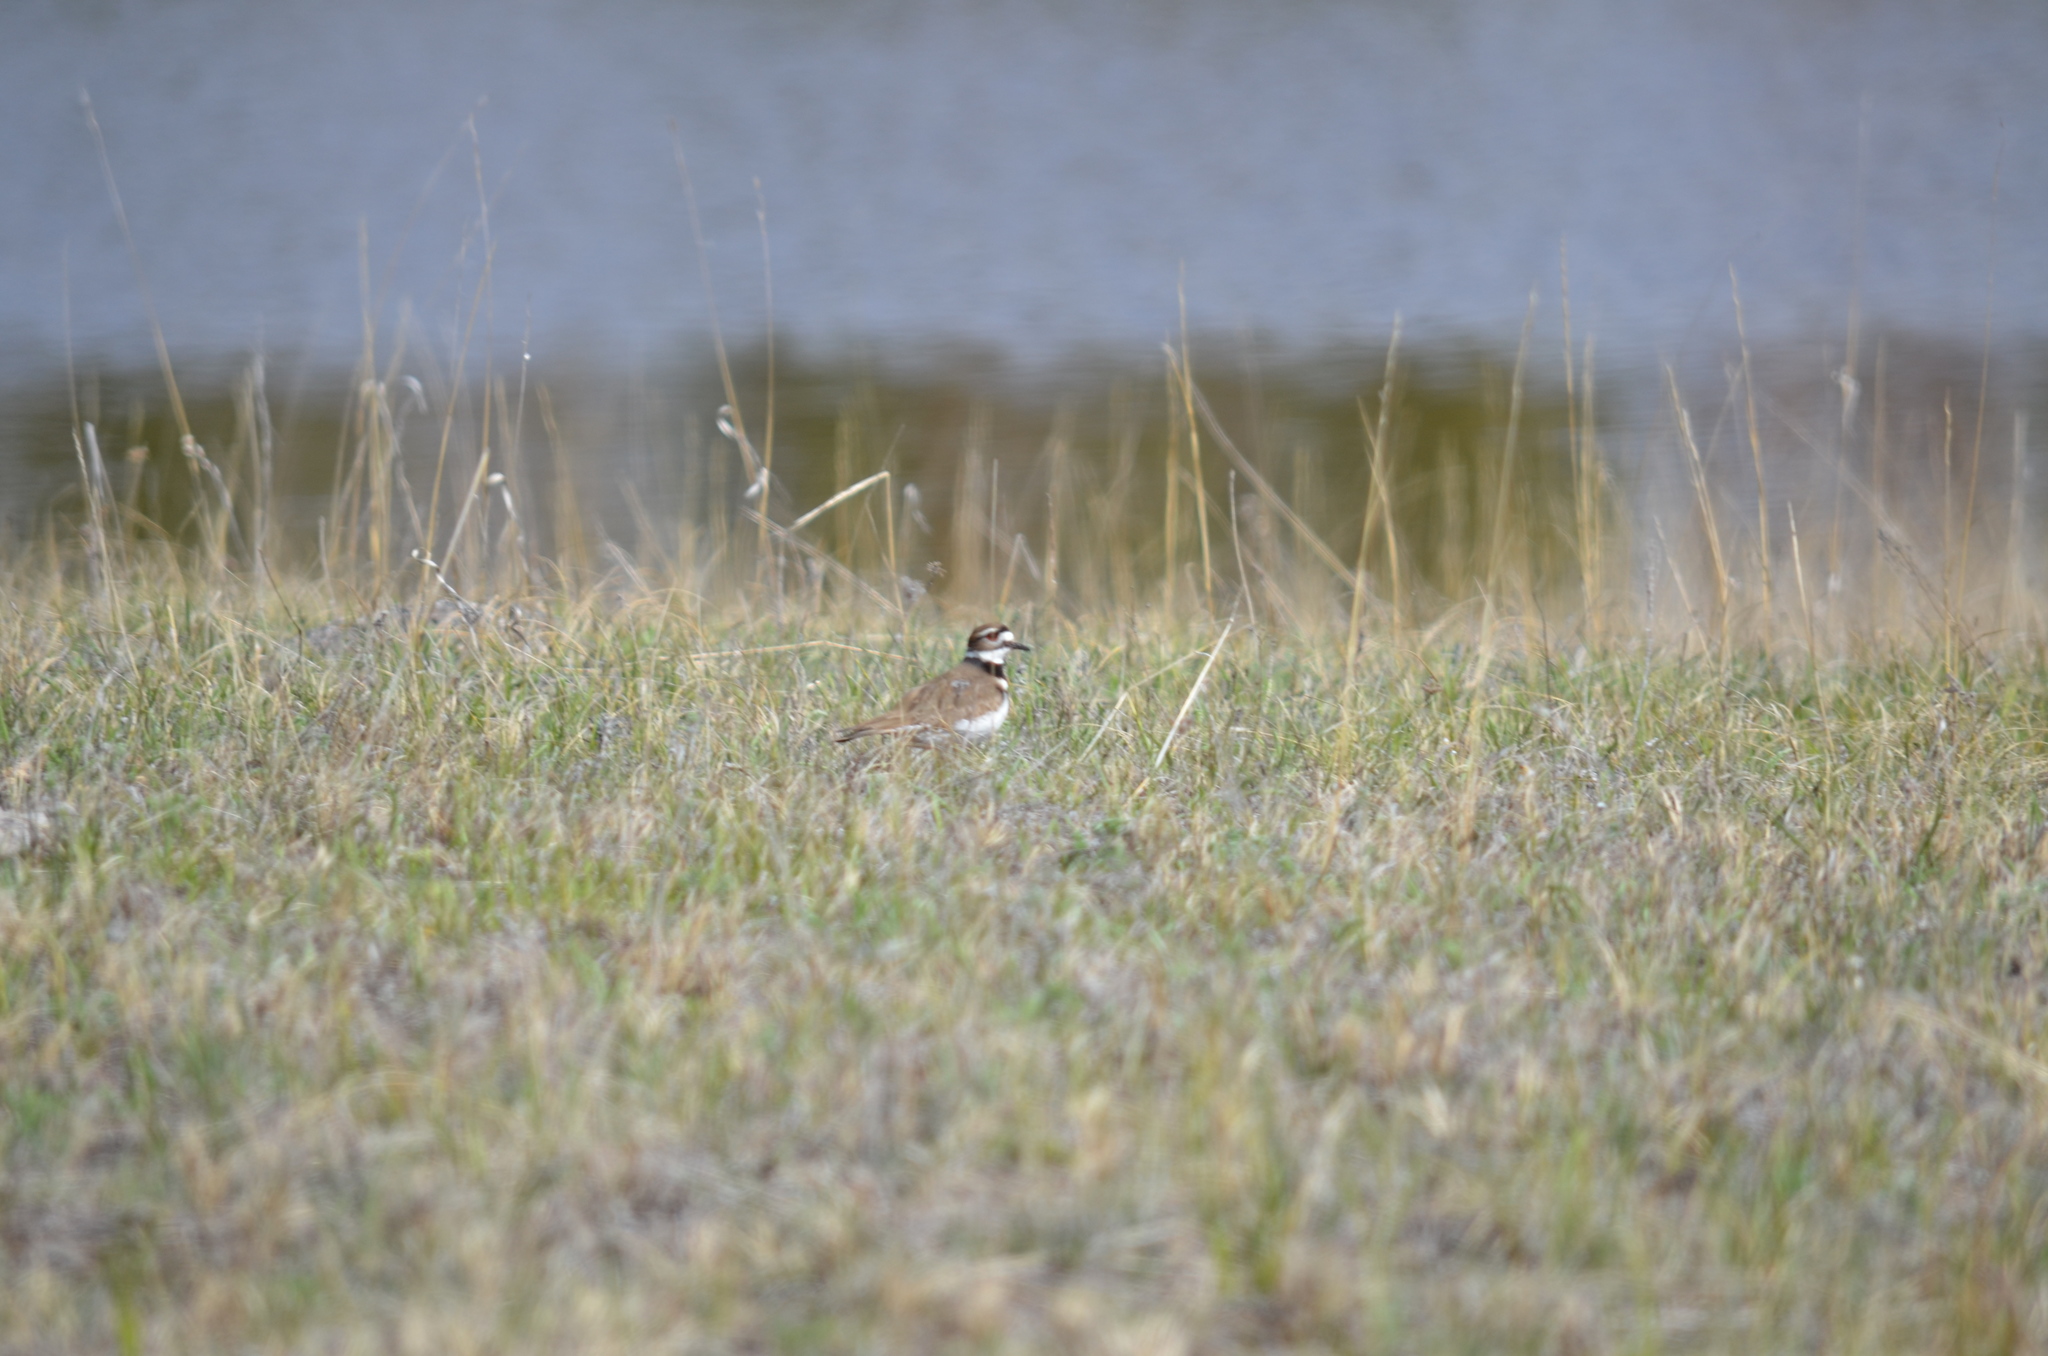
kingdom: Animalia
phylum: Chordata
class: Aves
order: Charadriiformes
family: Charadriidae
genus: Charadrius
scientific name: Charadrius vociferus
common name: Killdeer
